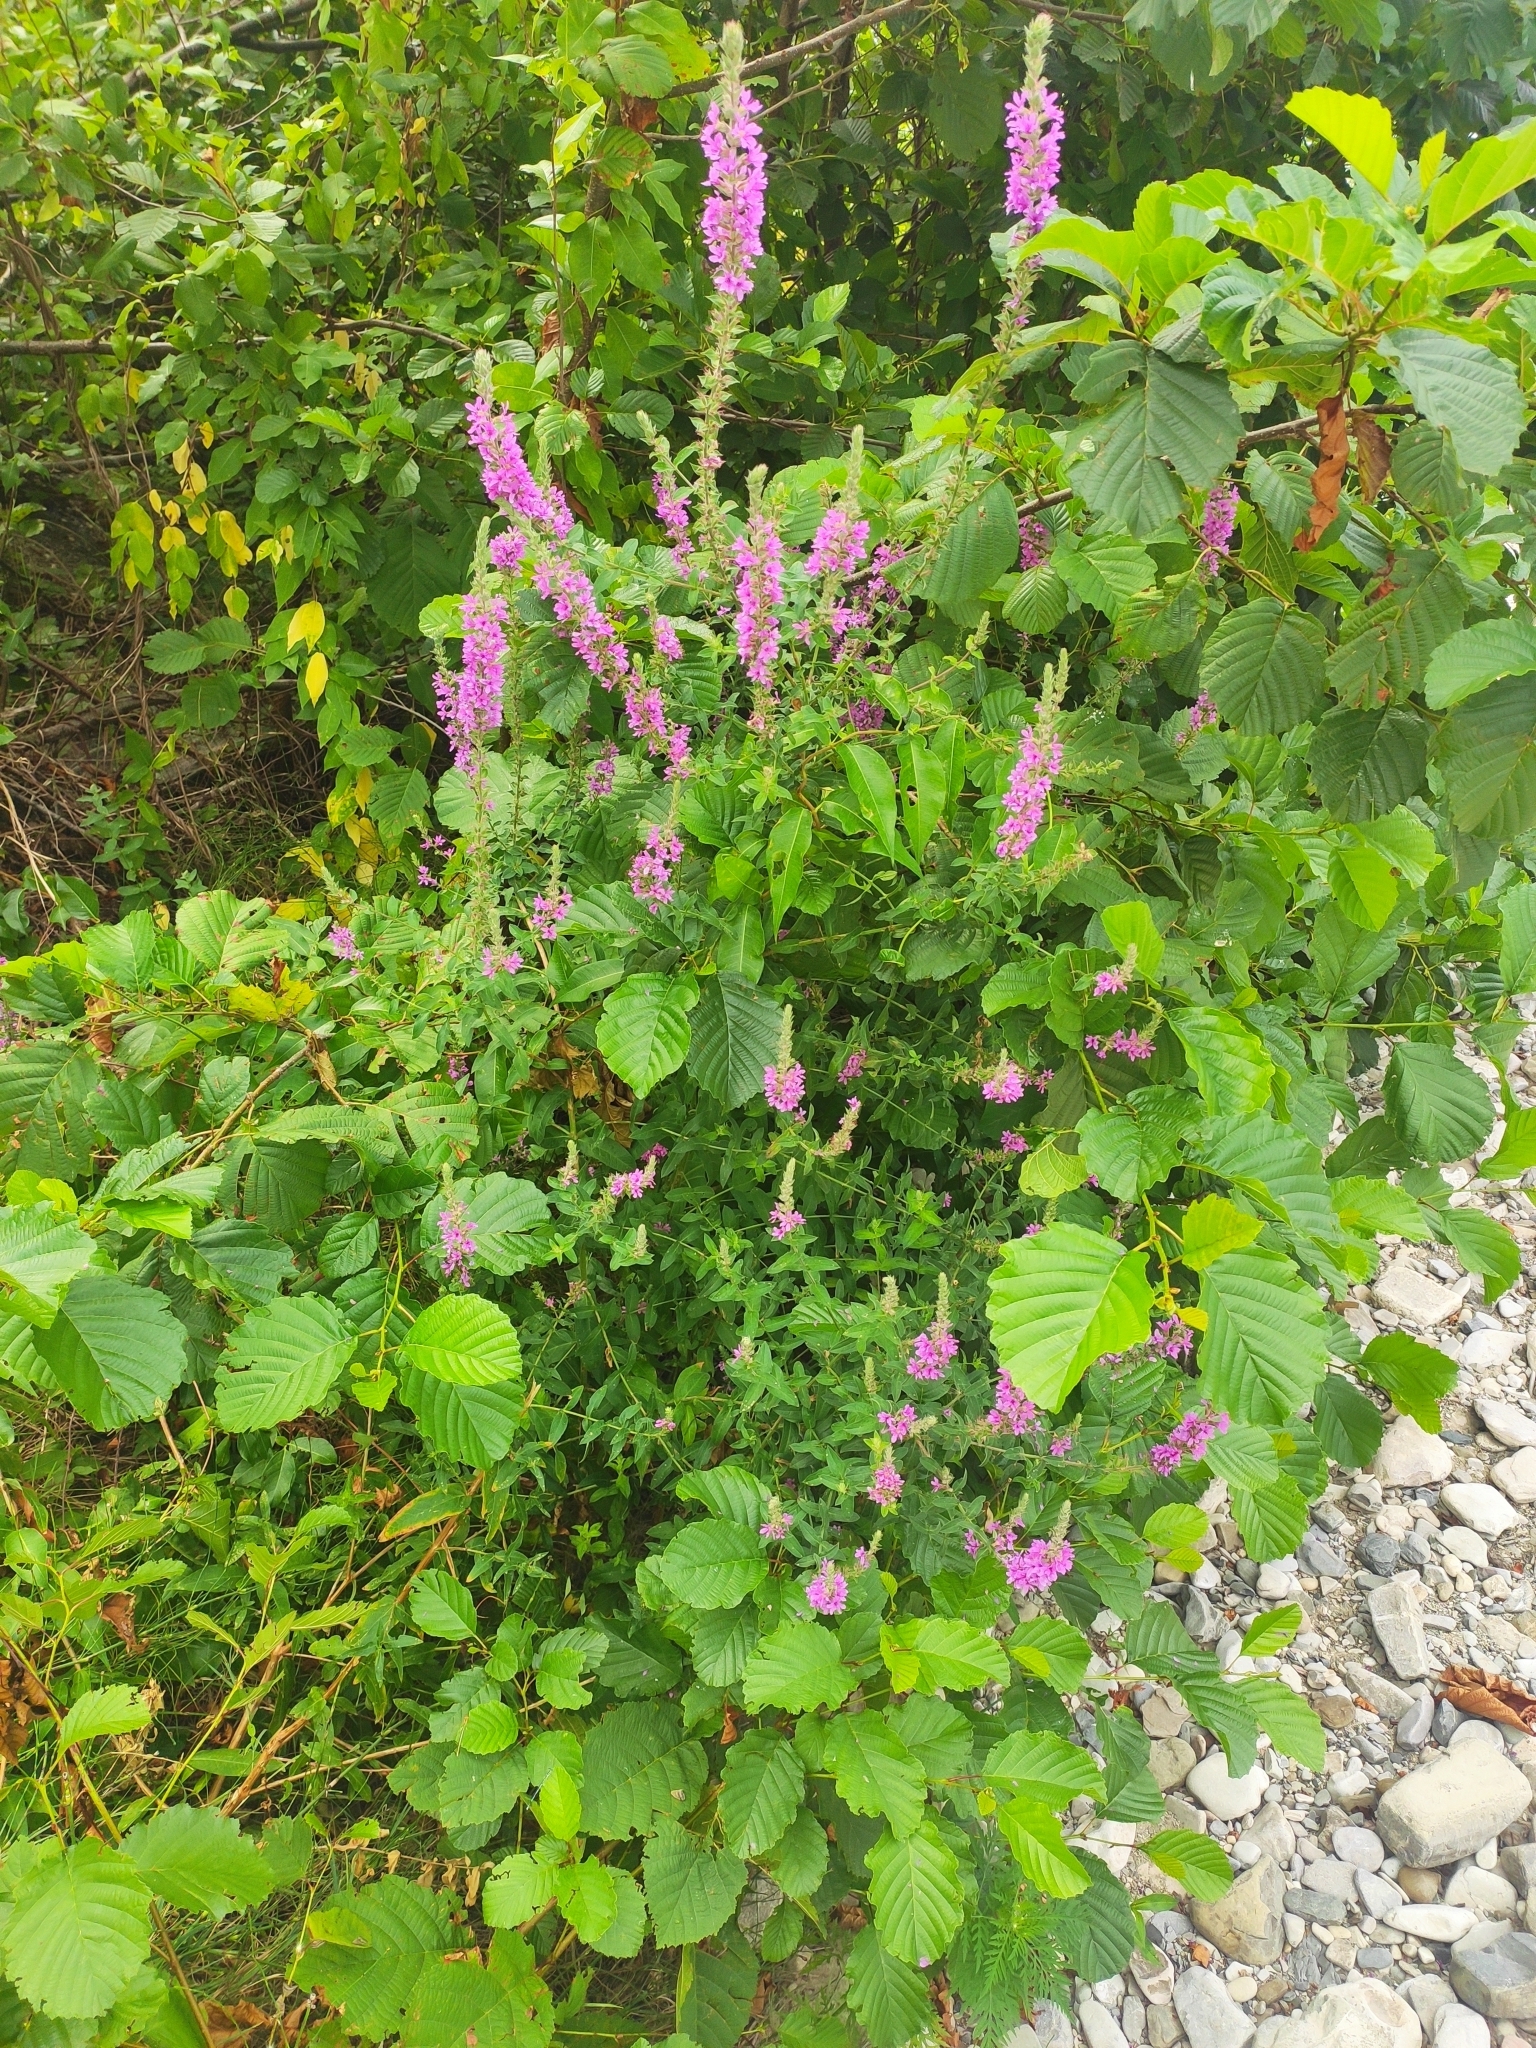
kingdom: Plantae
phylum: Tracheophyta
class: Magnoliopsida
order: Myrtales
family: Lythraceae
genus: Lythrum
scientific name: Lythrum salicaria
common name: Purple loosestrife
